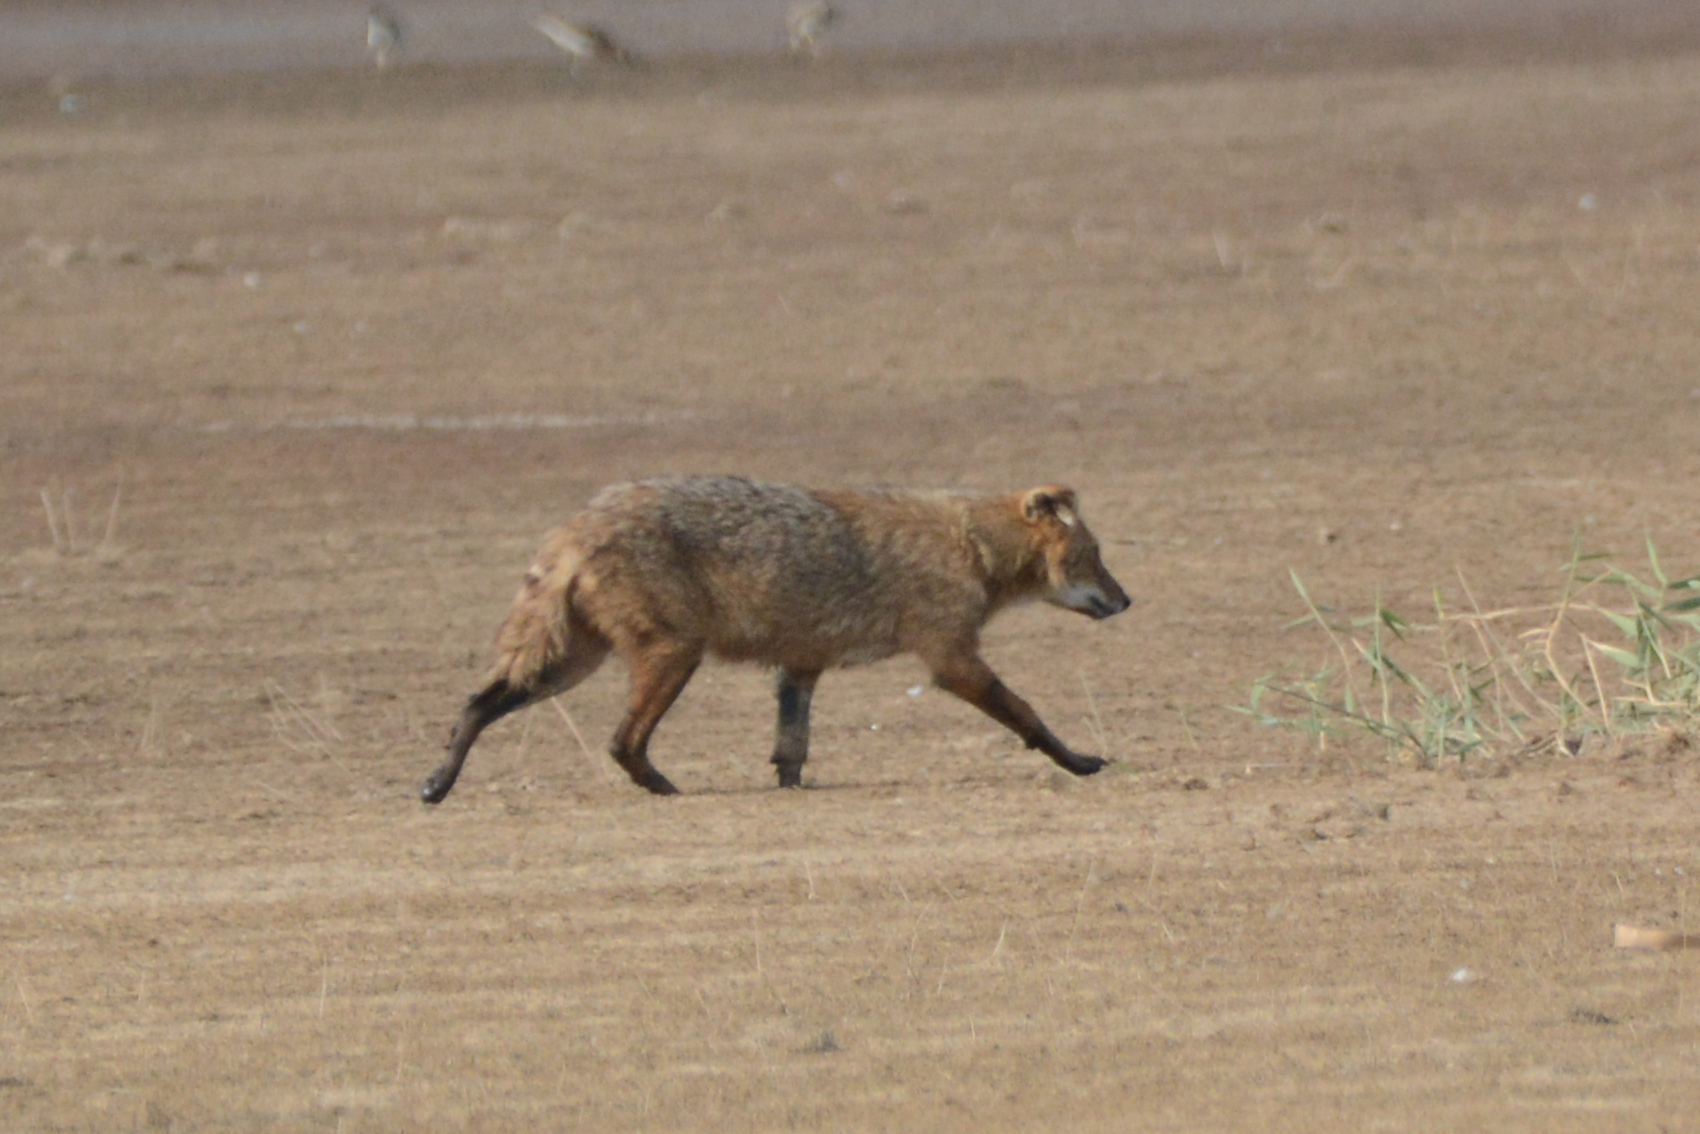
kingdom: Animalia
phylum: Chordata
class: Mammalia
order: Carnivora
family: Canidae
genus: Canis
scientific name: Canis aureus
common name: Golden jackal
